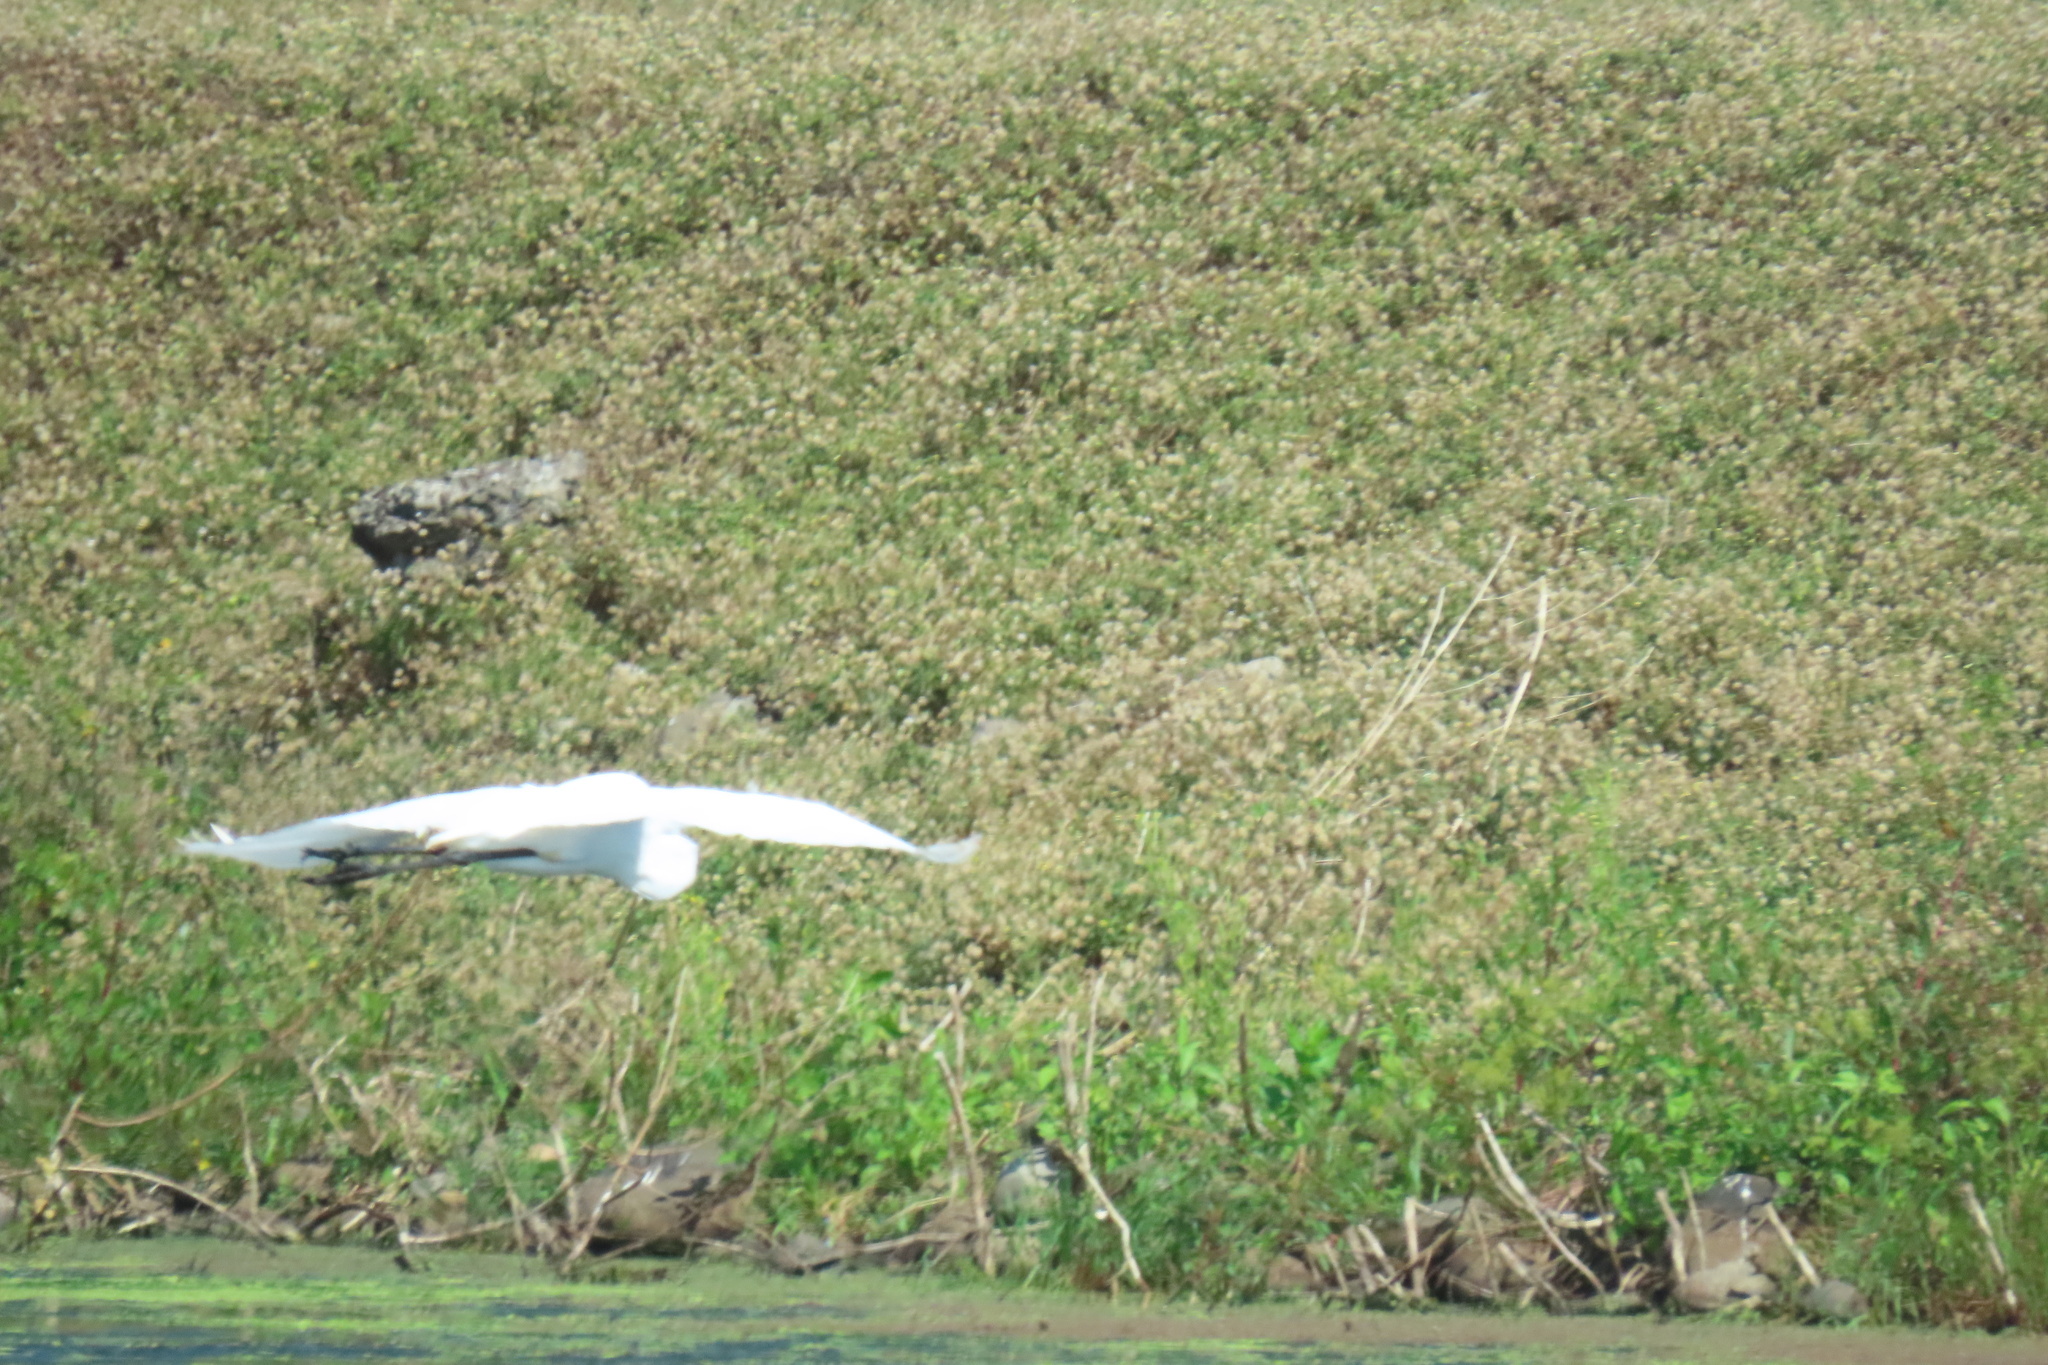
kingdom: Animalia
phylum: Chordata
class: Aves
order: Pelecaniformes
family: Ardeidae
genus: Ardea
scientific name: Ardea alba
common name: Great egret
